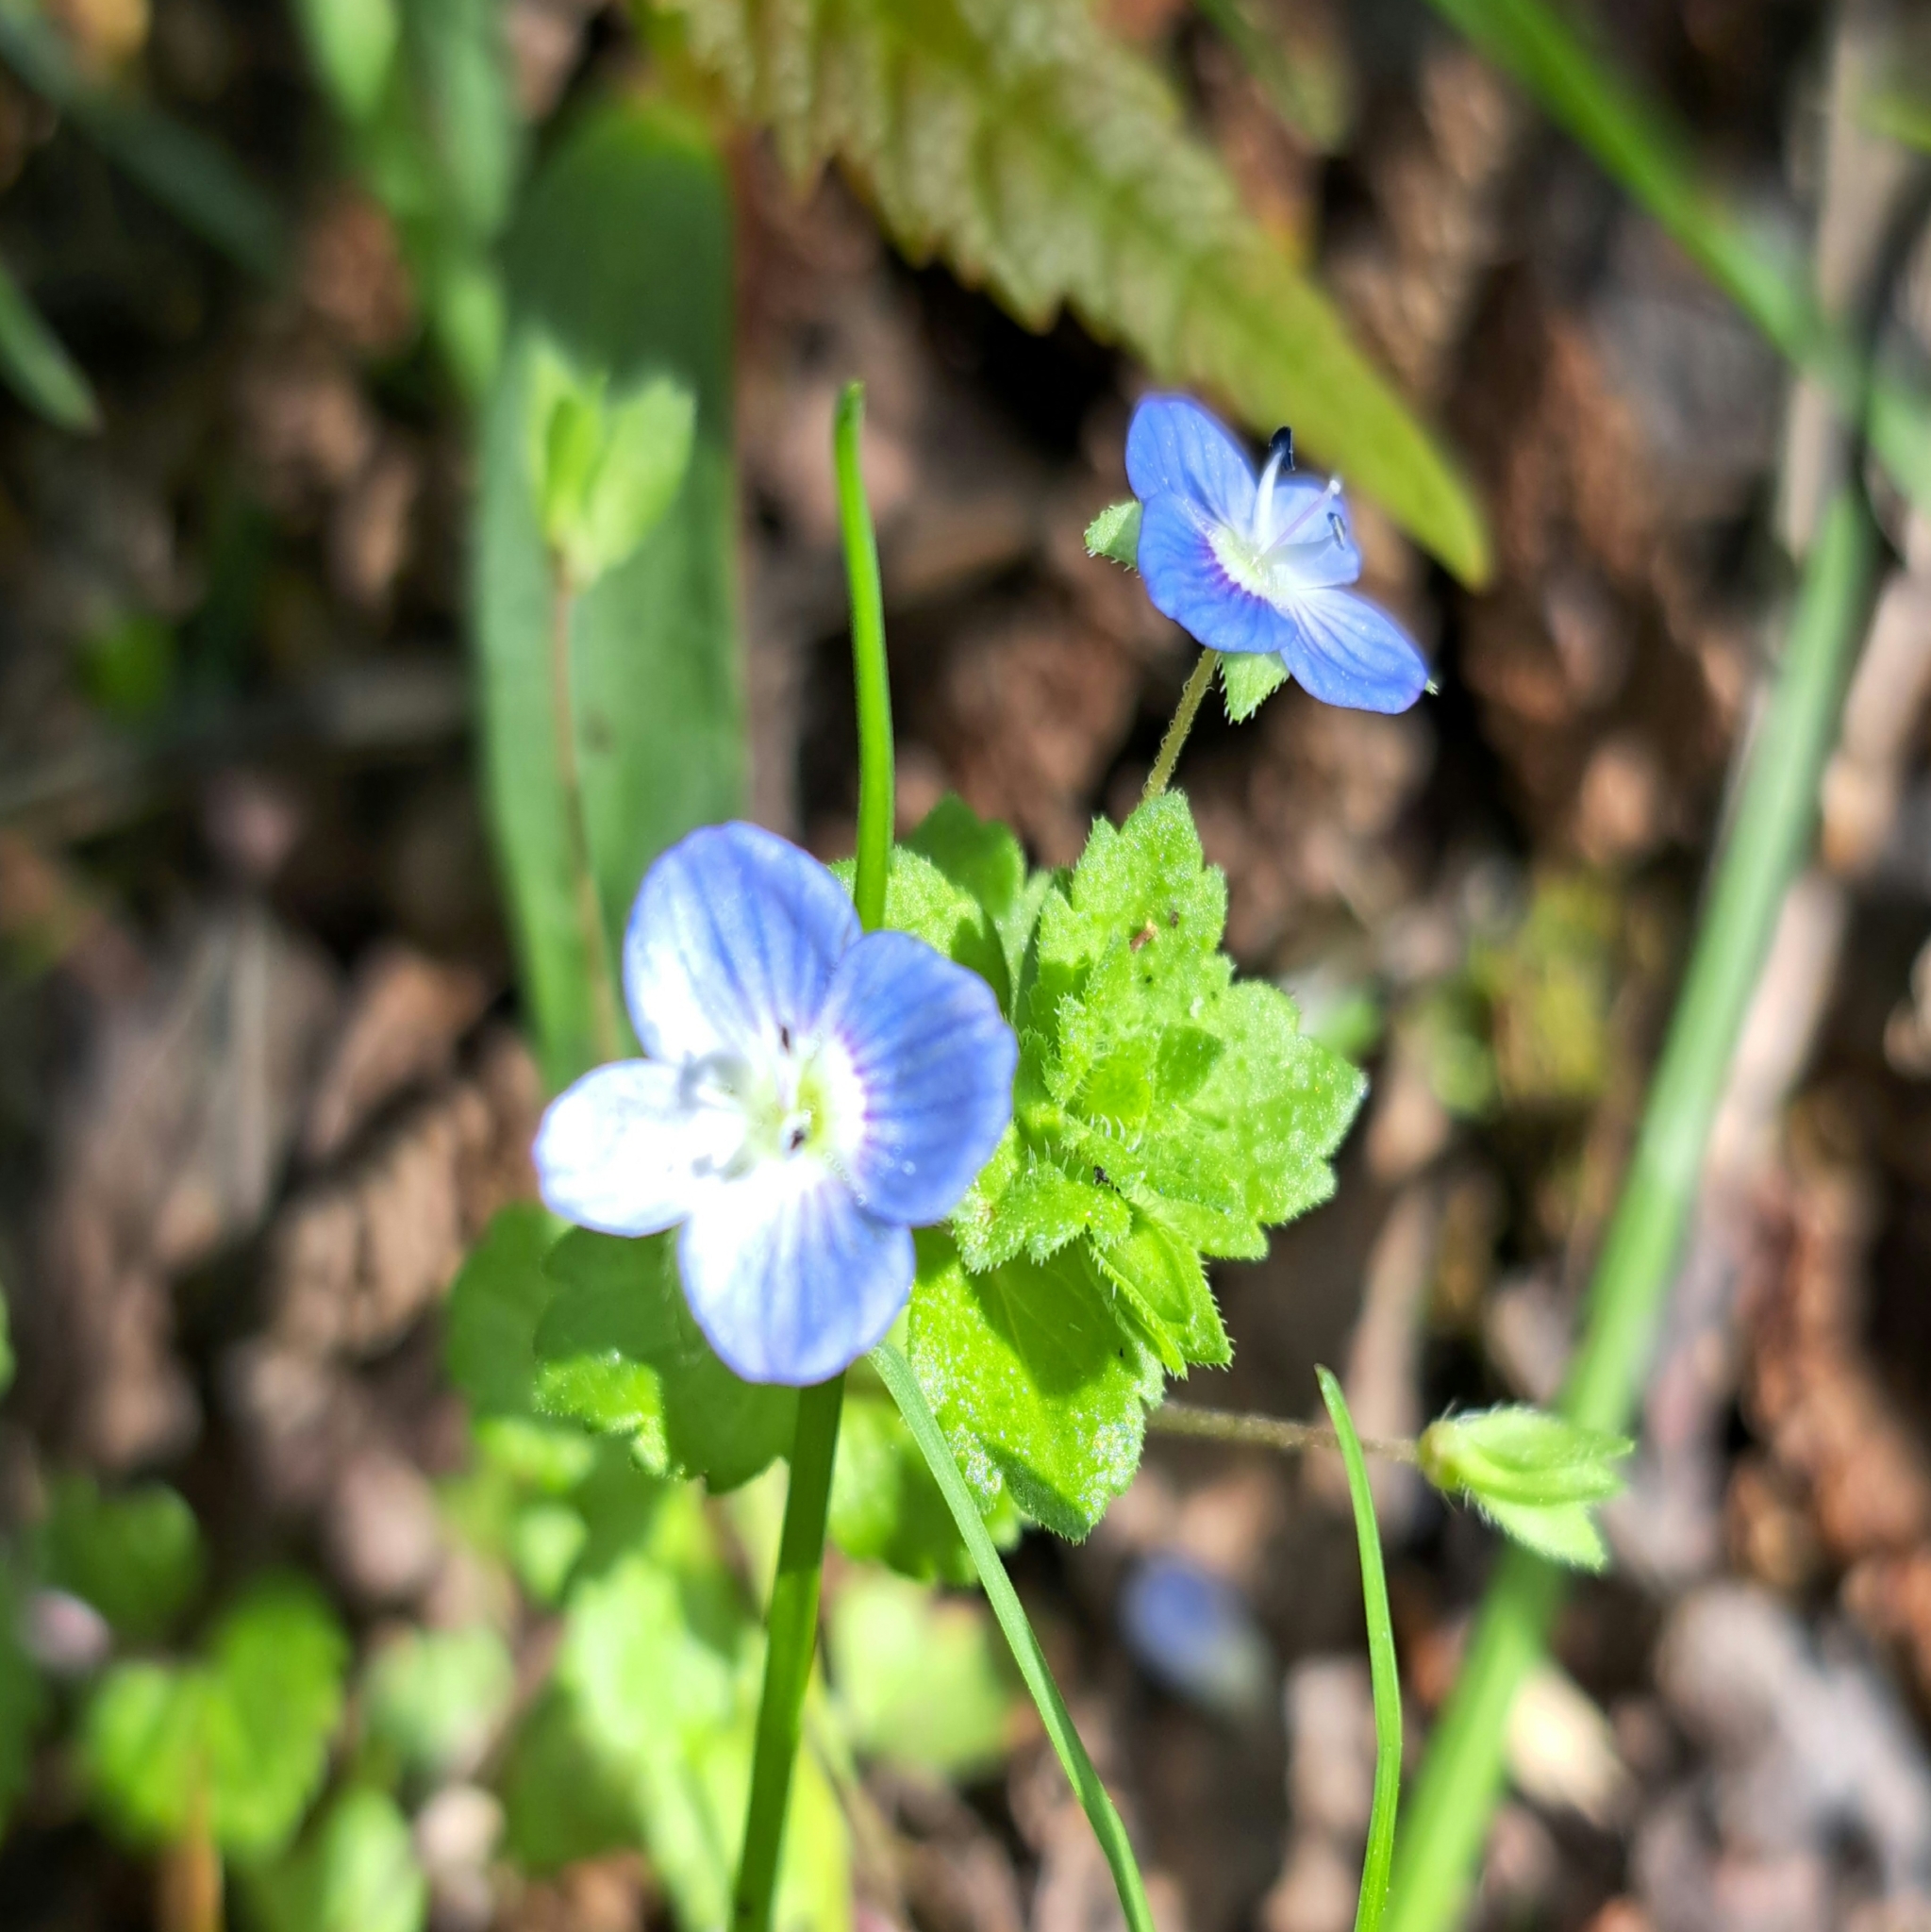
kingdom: Plantae
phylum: Tracheophyta
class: Magnoliopsida
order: Lamiales
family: Plantaginaceae
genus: Veronica
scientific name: Veronica persica
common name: Common field-speedwell
